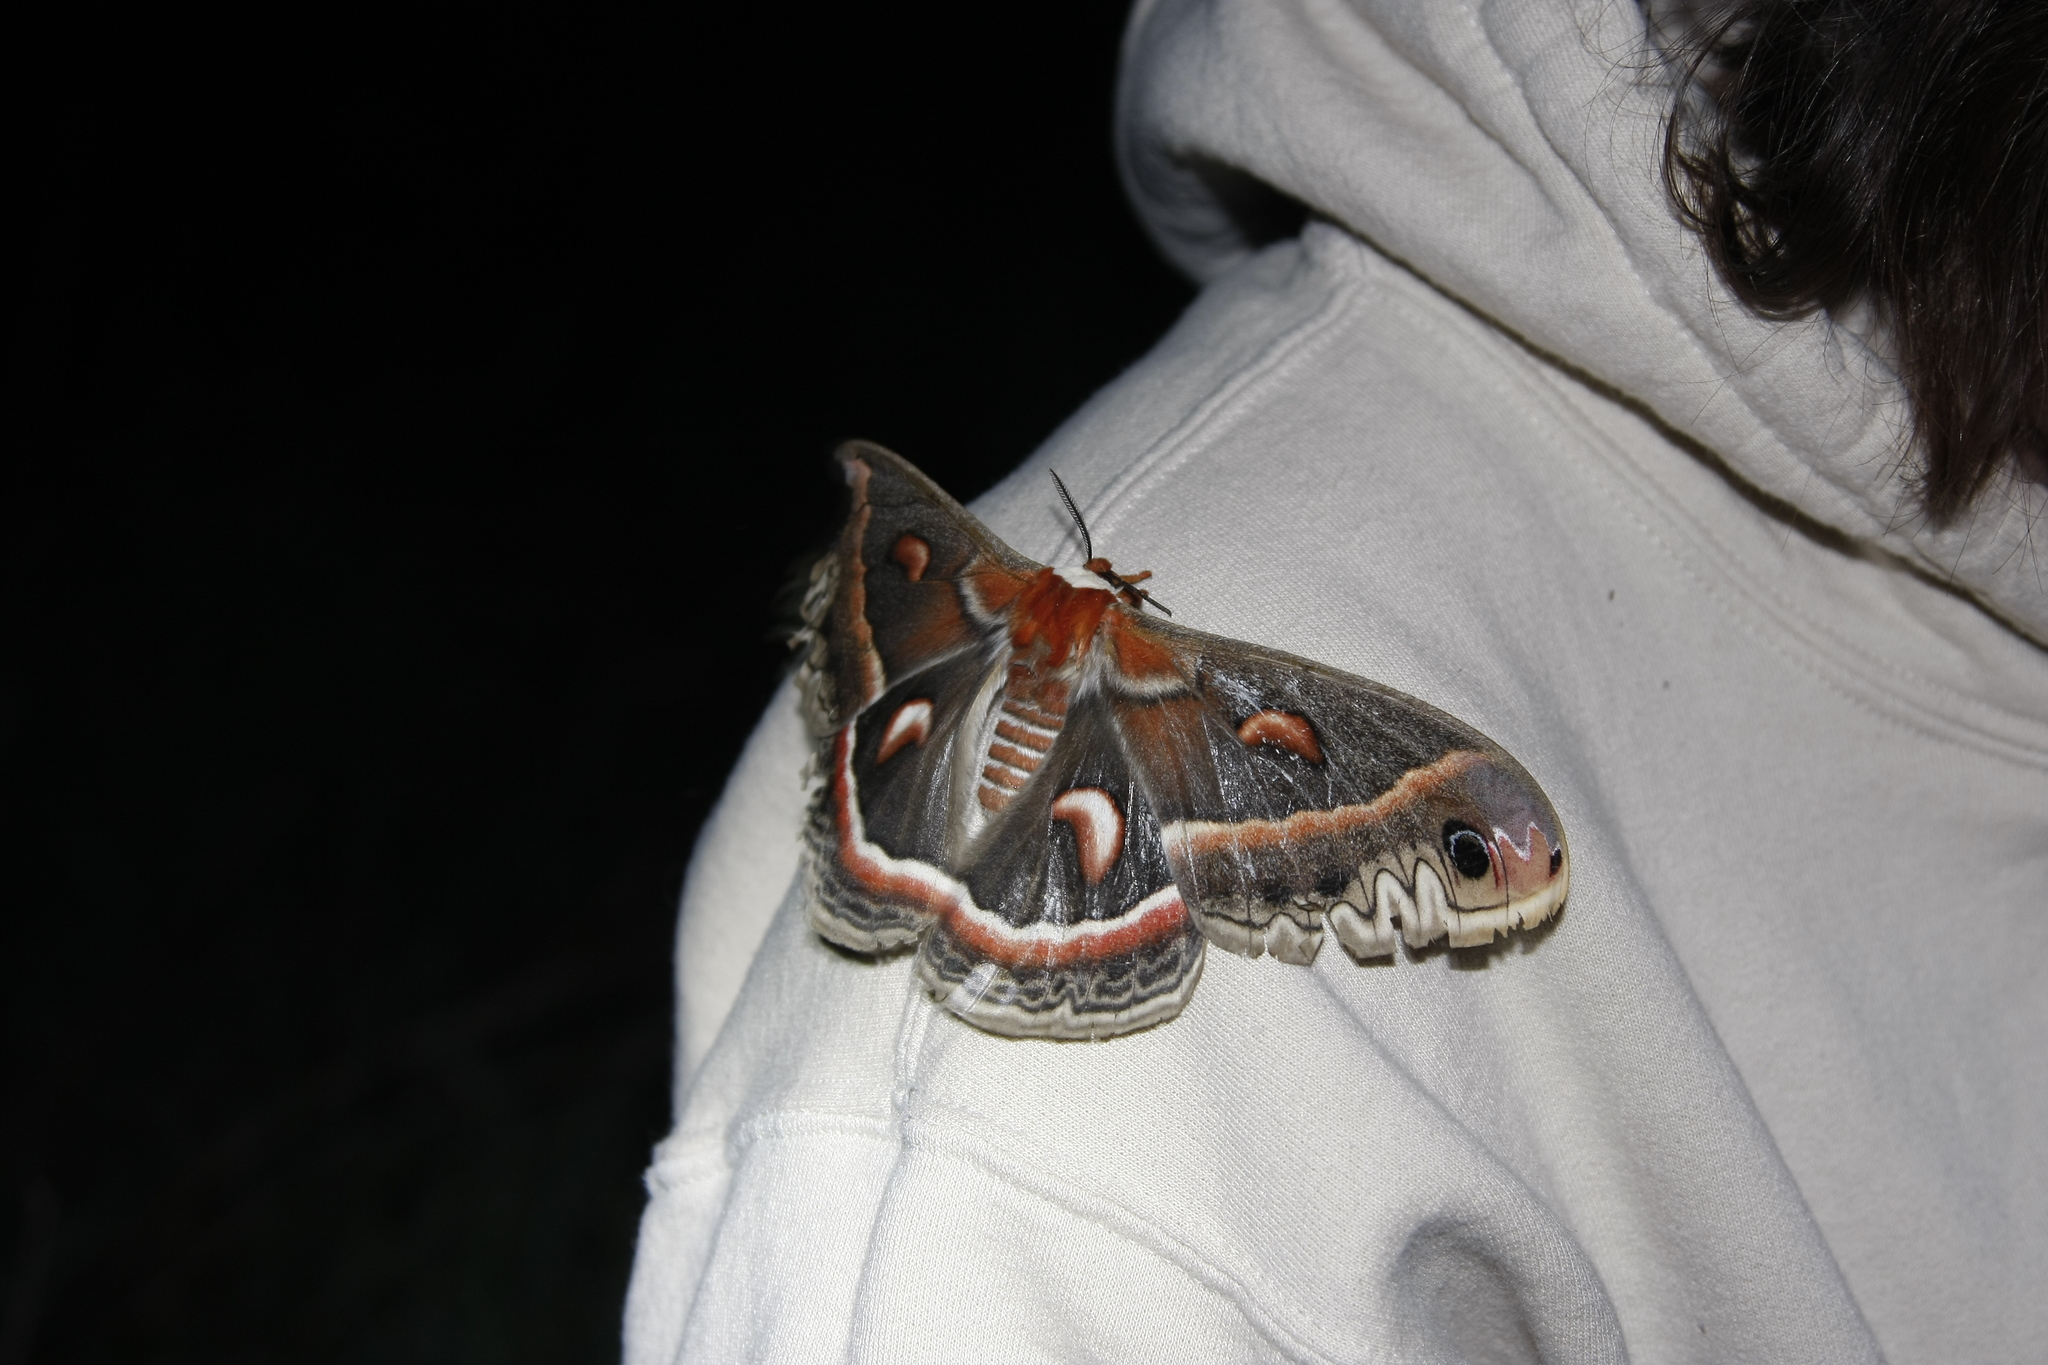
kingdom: Animalia
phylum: Arthropoda
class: Insecta
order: Lepidoptera
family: Saturniidae
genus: Hyalophora
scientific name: Hyalophora cecropia
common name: Cecropia silkmoth
